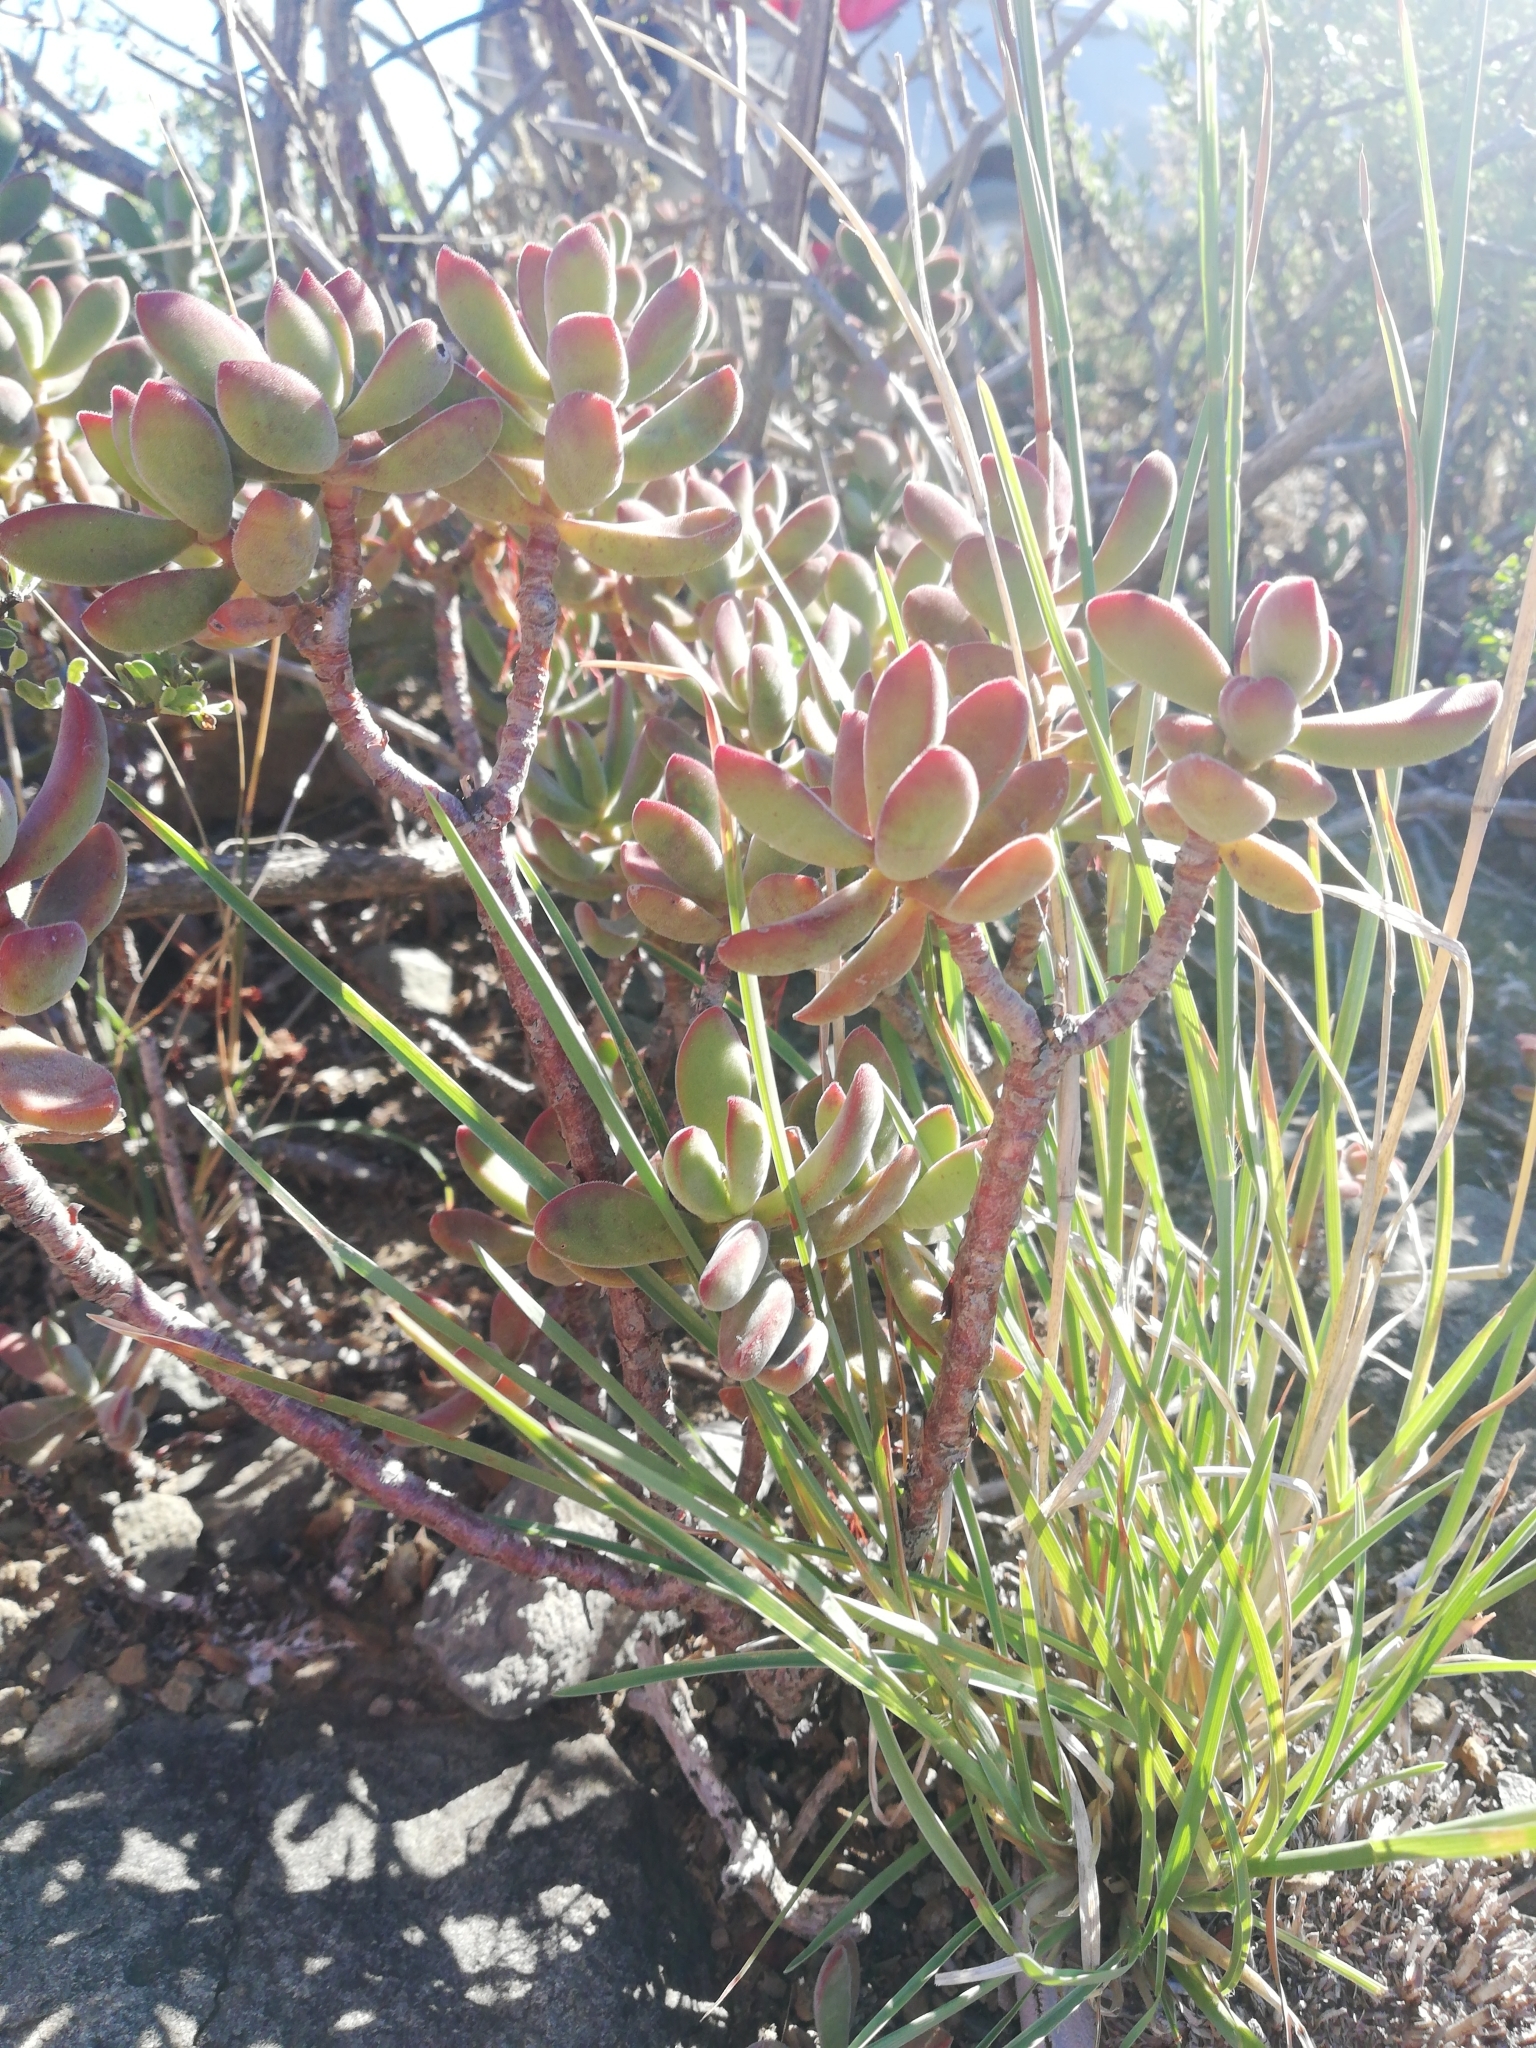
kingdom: Plantae
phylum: Tracheophyta
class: Magnoliopsida
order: Saxifragales
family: Crassulaceae
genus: Crassula
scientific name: Crassula rogersii
